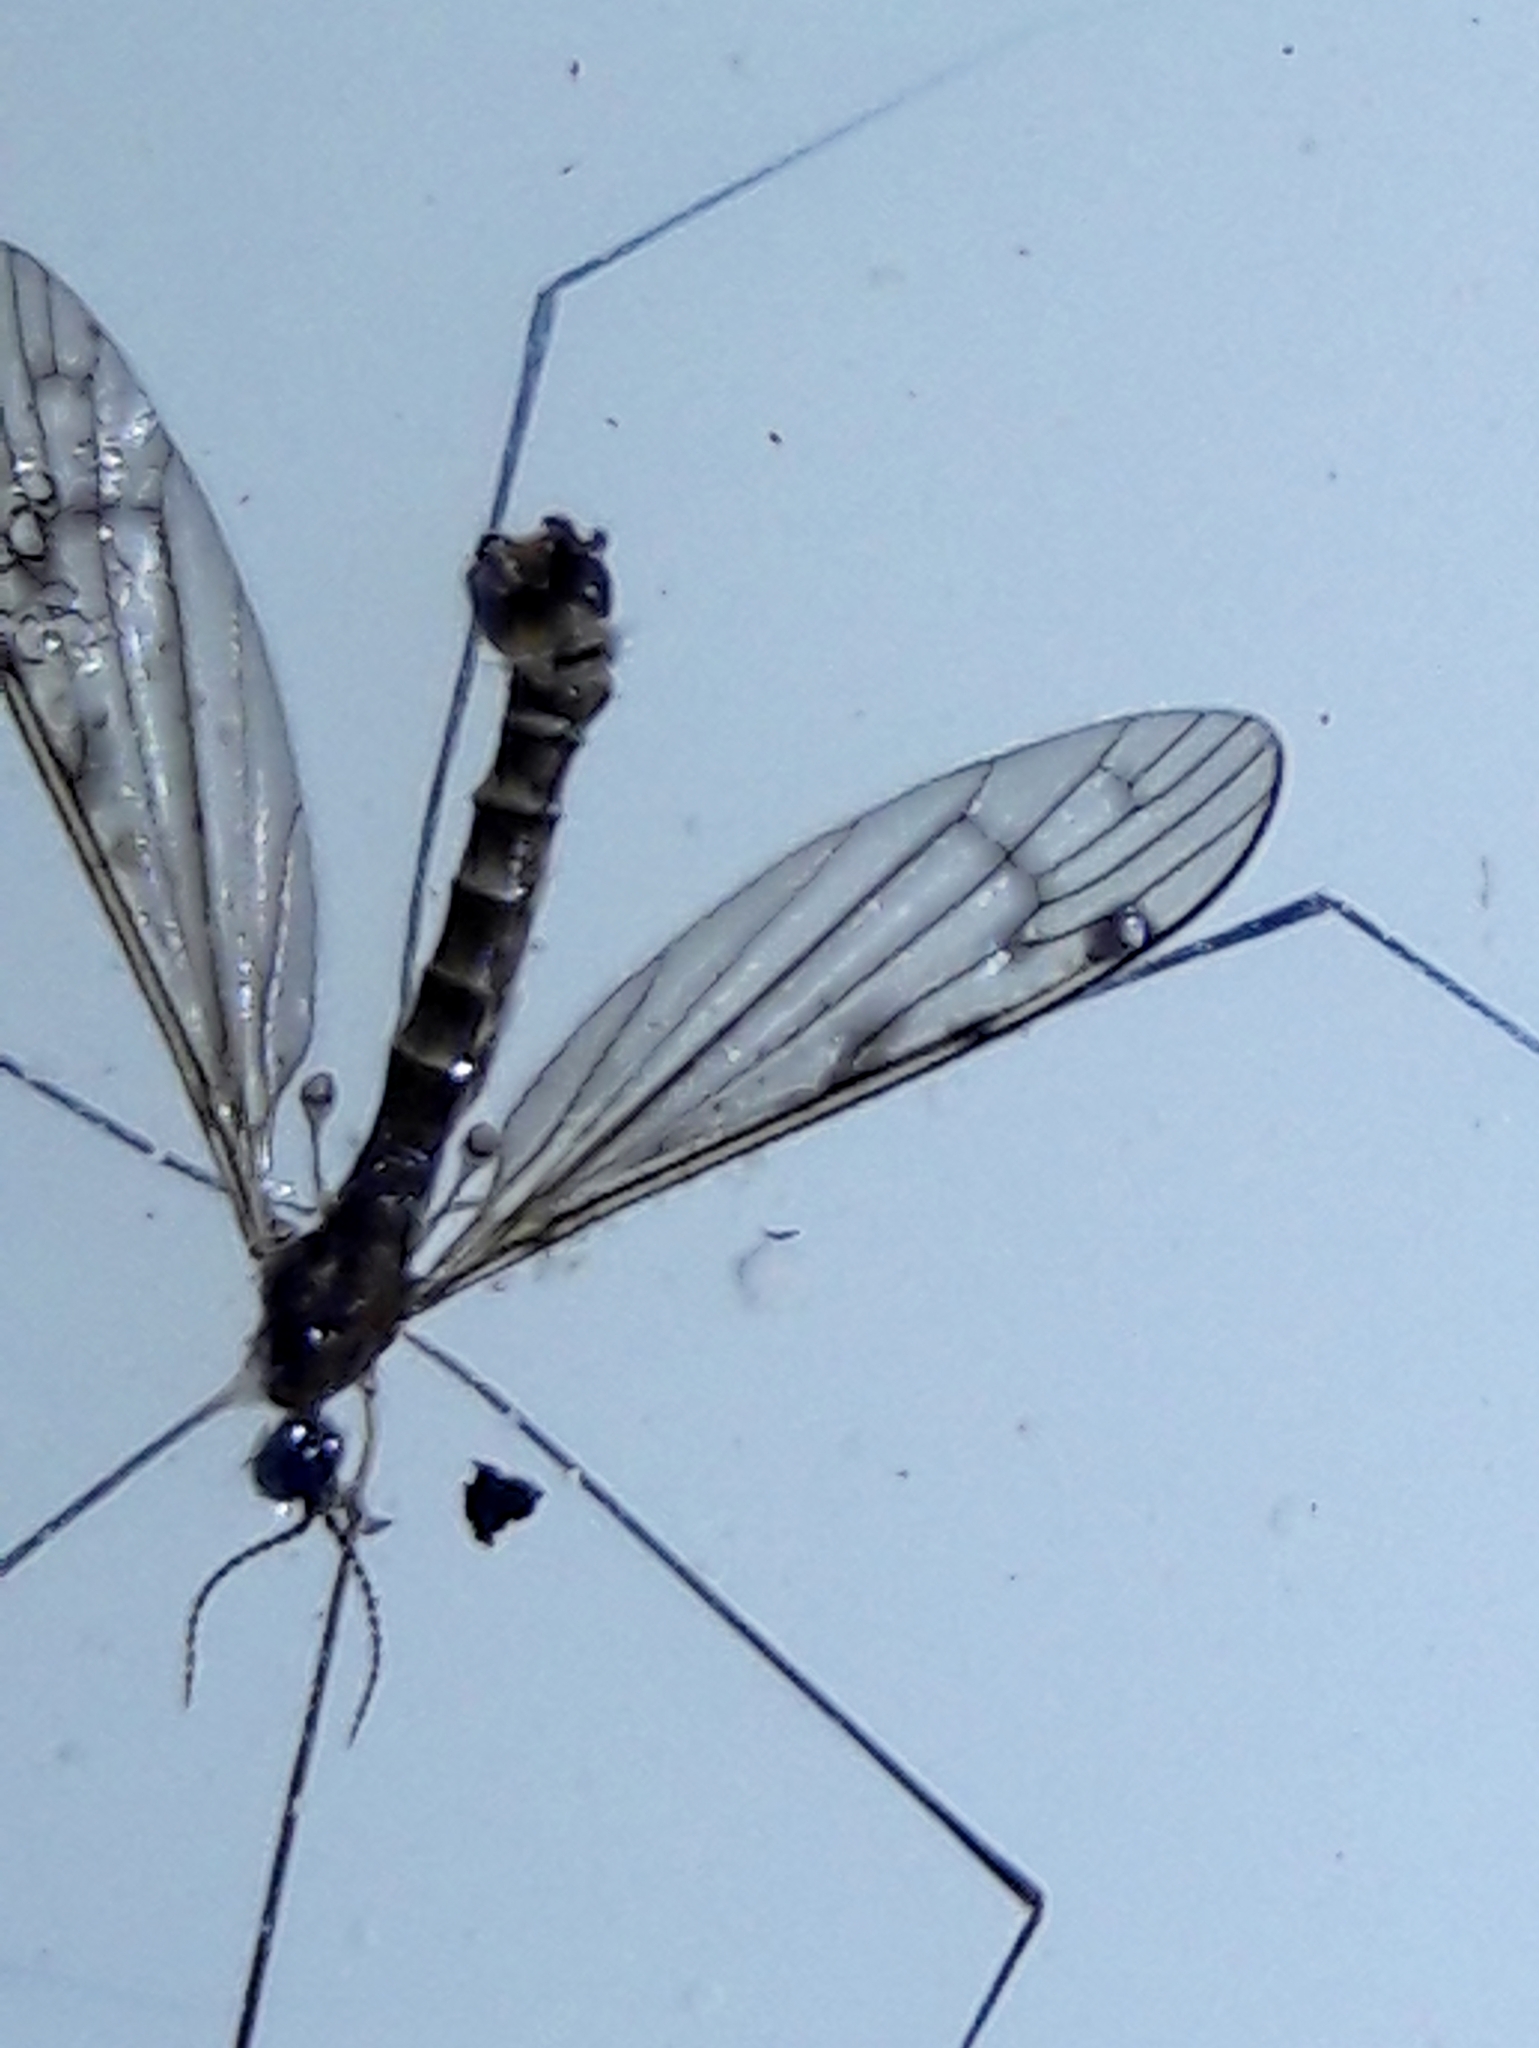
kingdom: Animalia
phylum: Arthropoda
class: Insecta
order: Diptera
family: Limoniidae
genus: Atypophthalmus
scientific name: Atypophthalmus umbratus
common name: Crane fly
